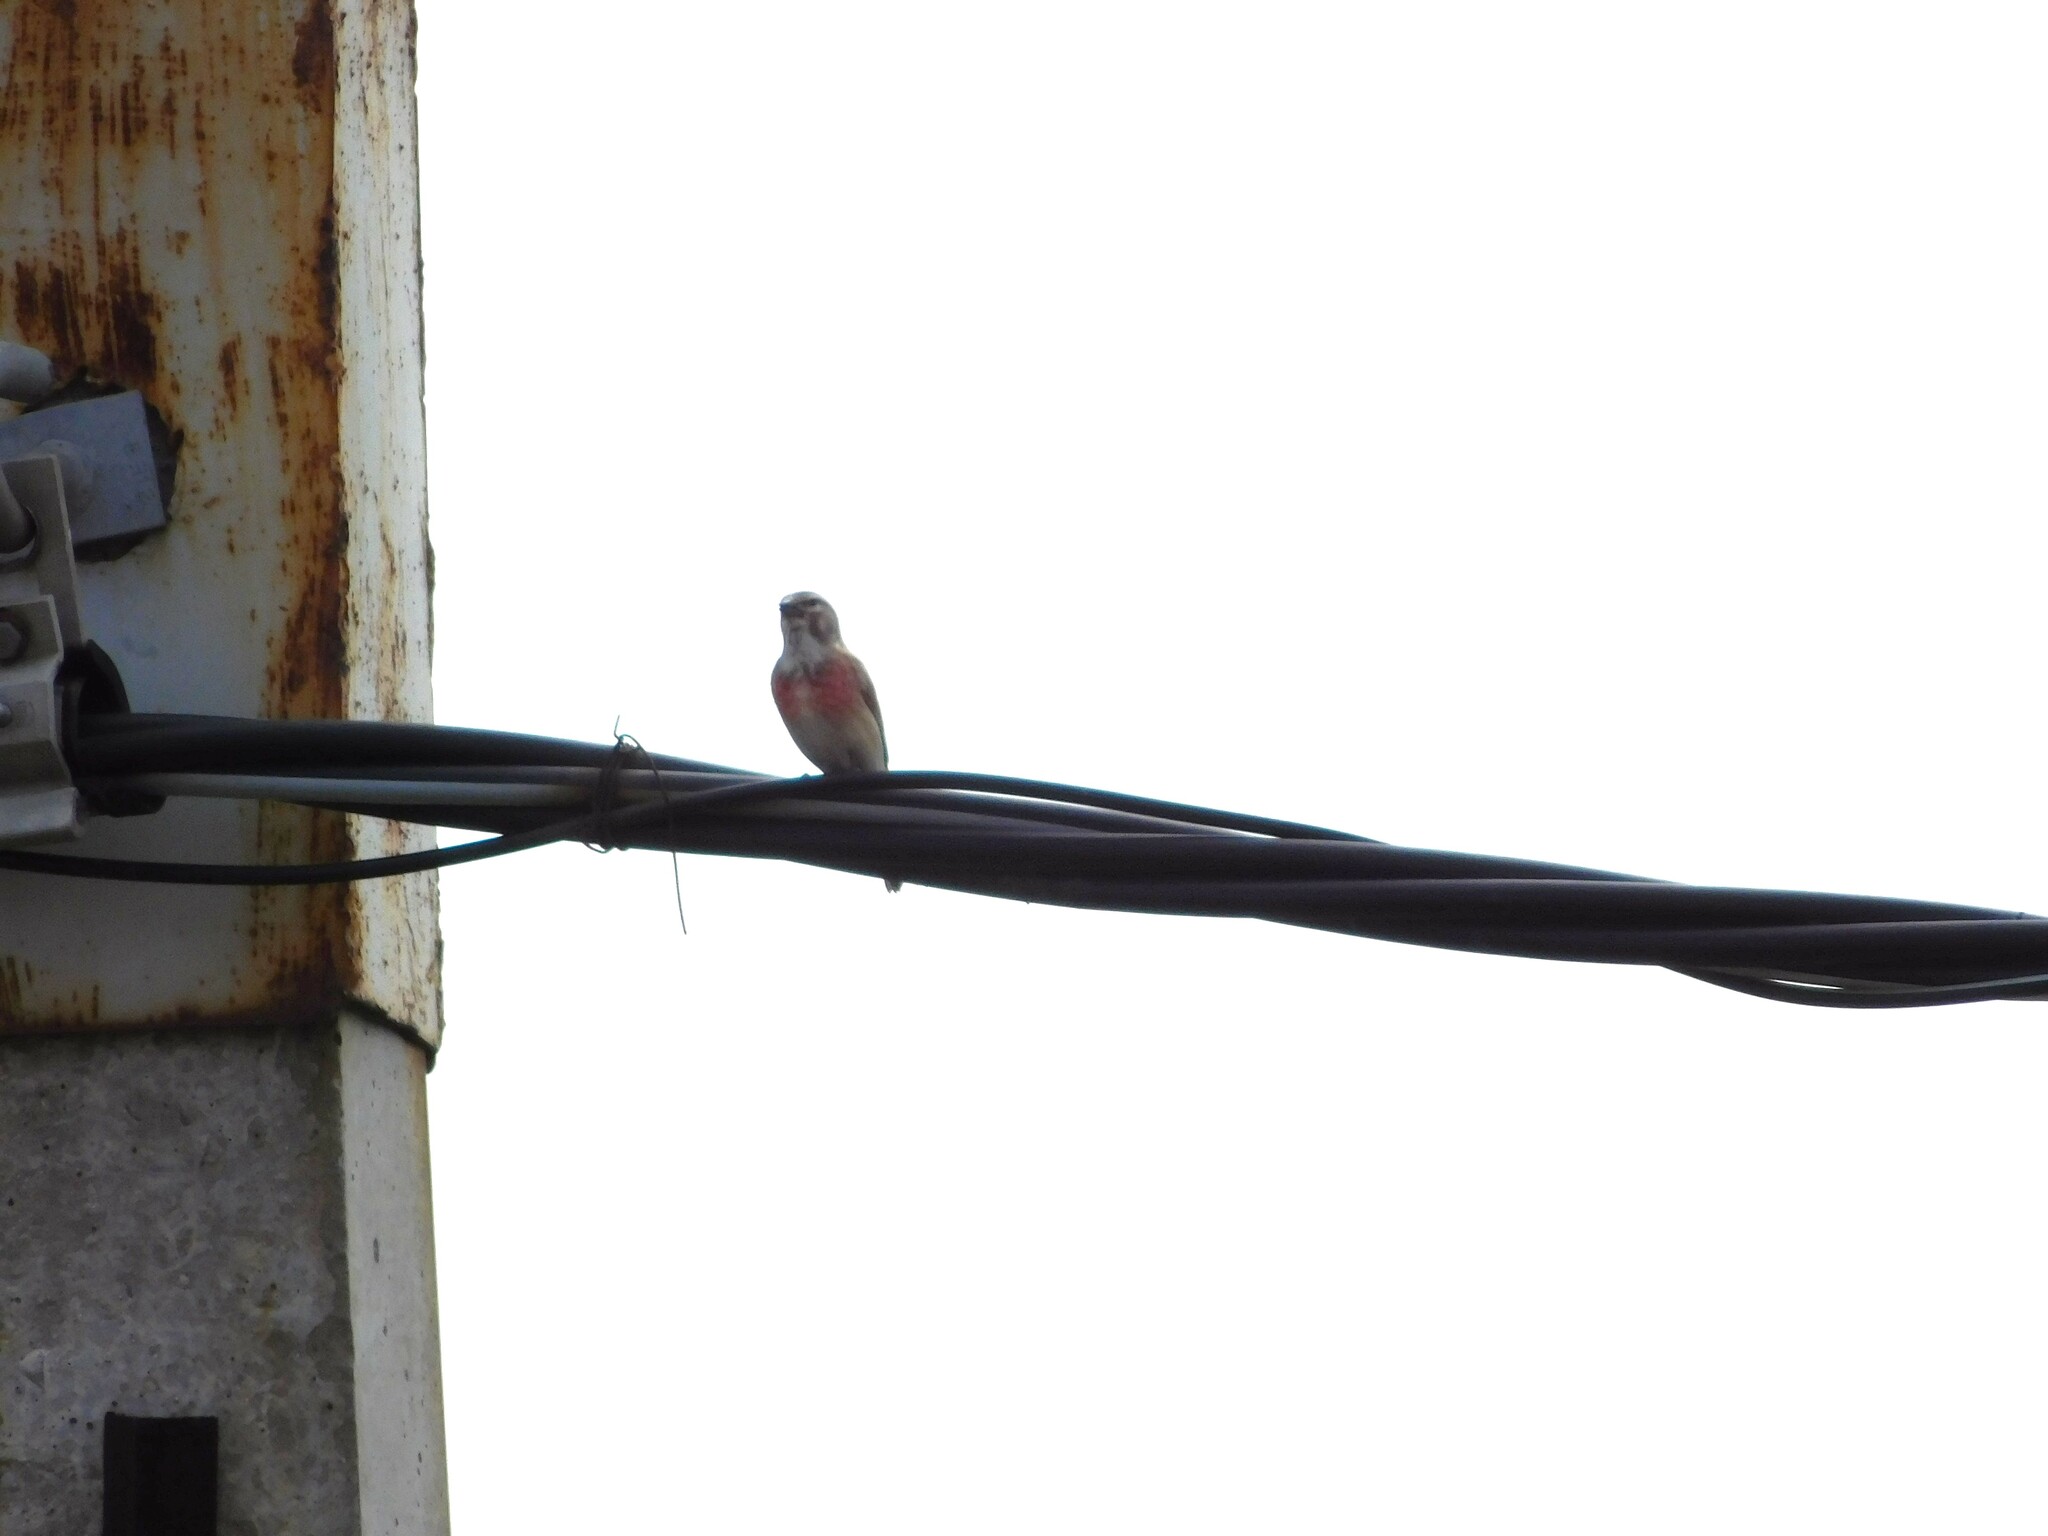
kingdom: Animalia
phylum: Chordata
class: Aves
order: Passeriformes
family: Fringillidae
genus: Linaria
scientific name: Linaria cannabina
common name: Common linnet
